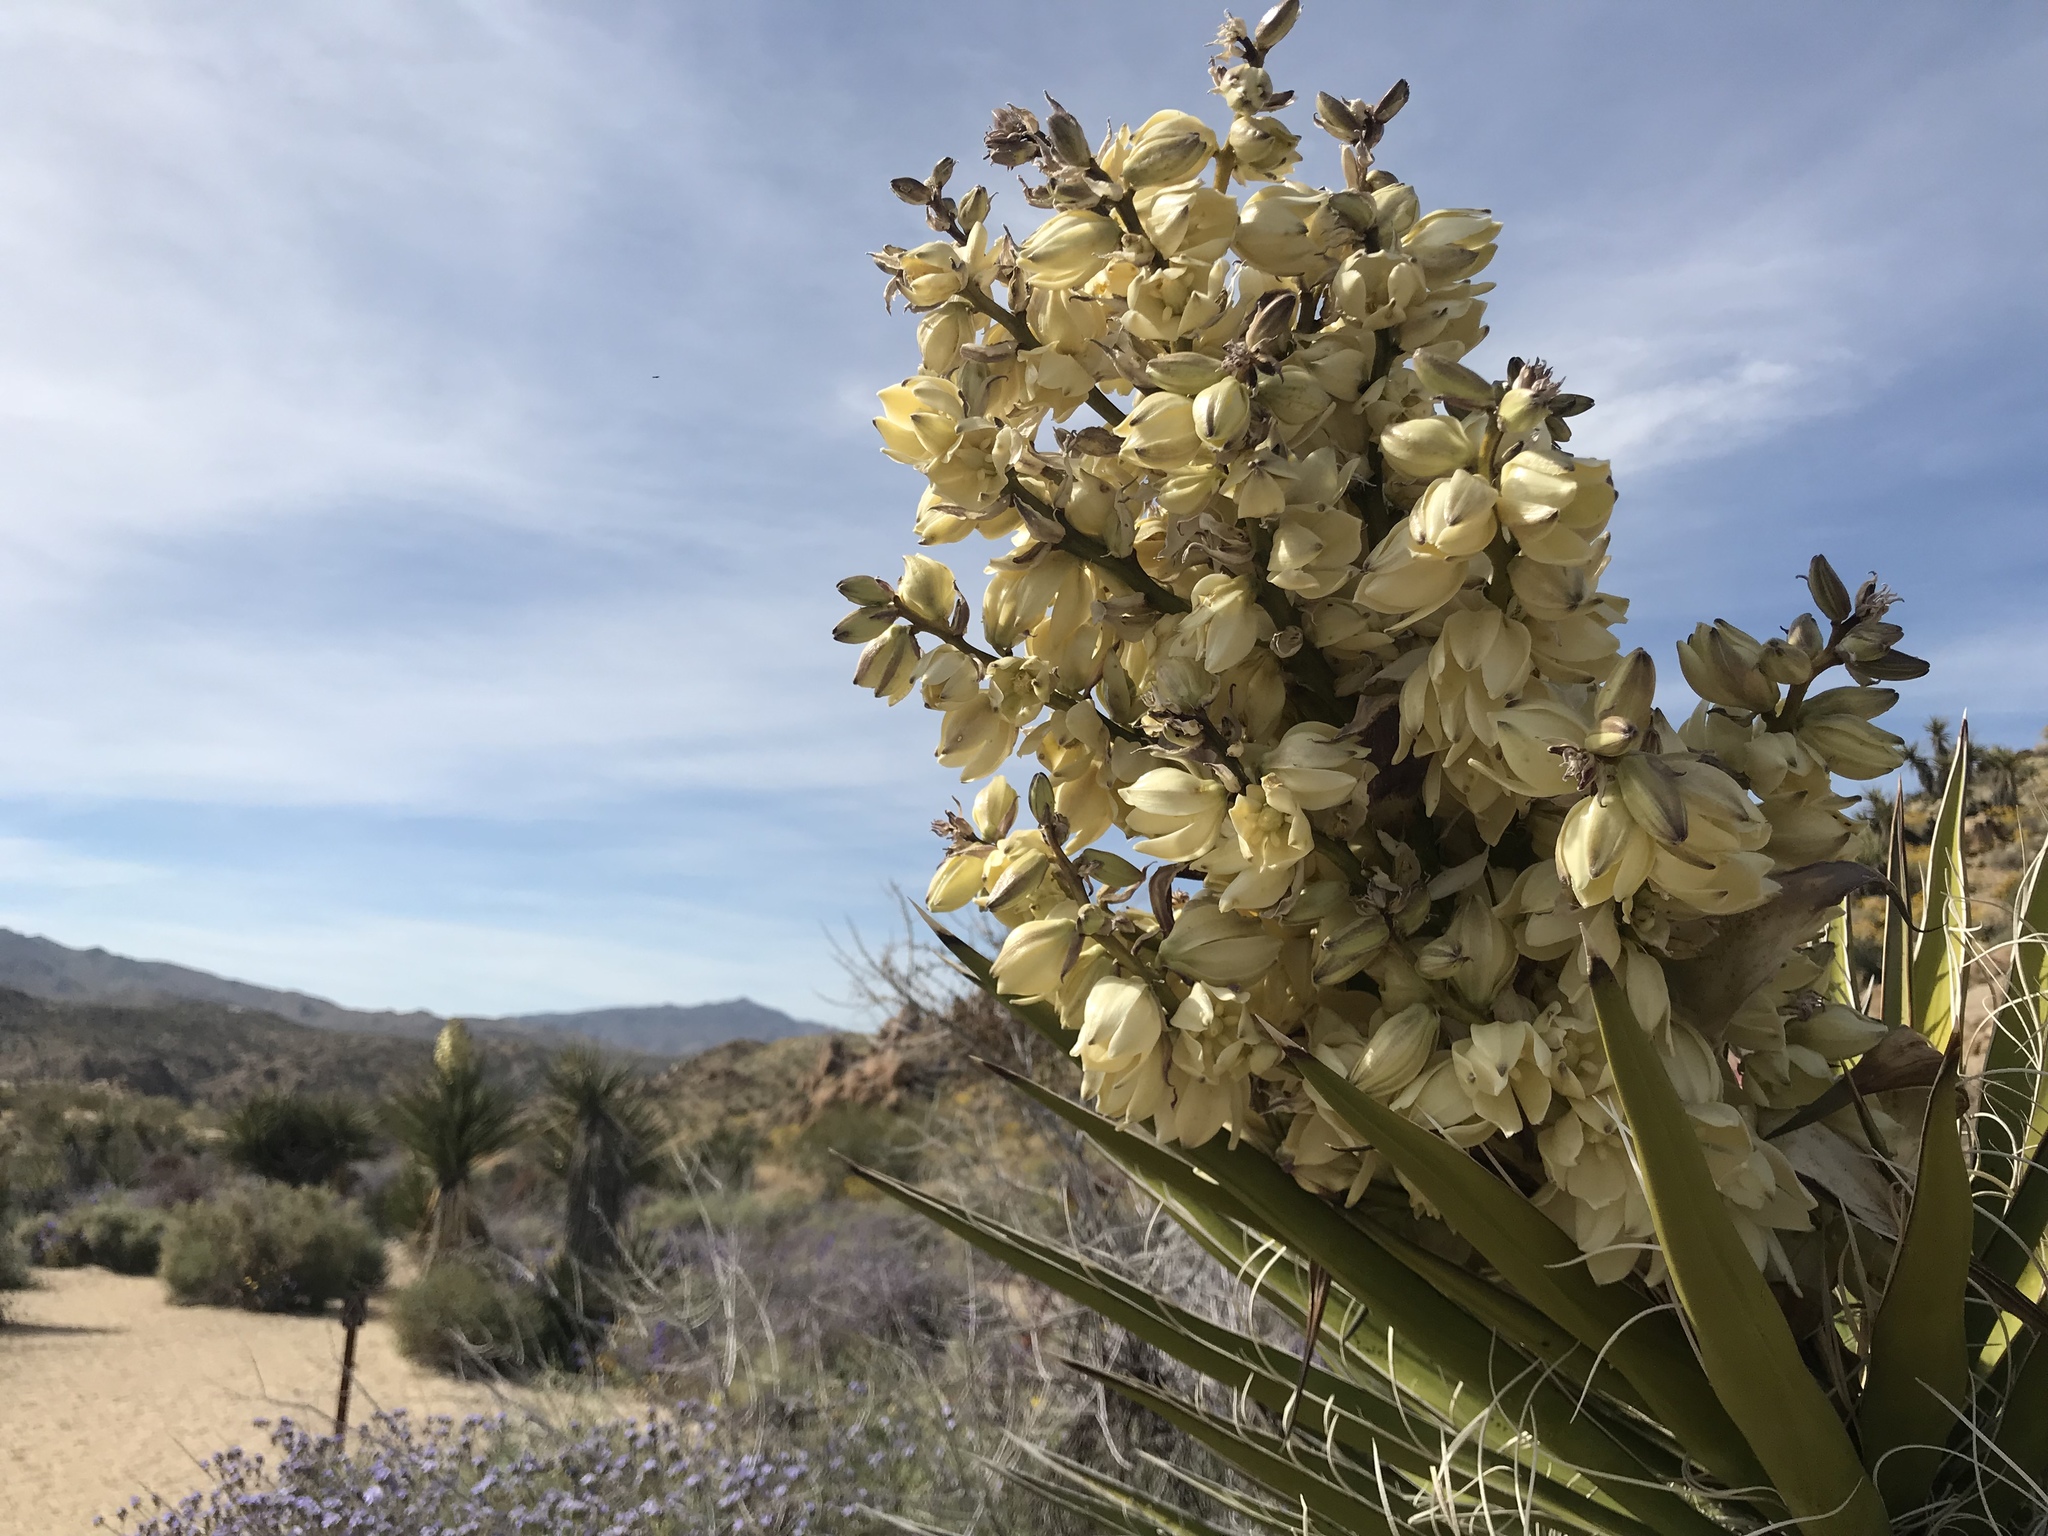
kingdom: Plantae
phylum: Tracheophyta
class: Liliopsida
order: Asparagales
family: Asparagaceae
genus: Yucca
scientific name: Yucca schidigera
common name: Mojave yucca
